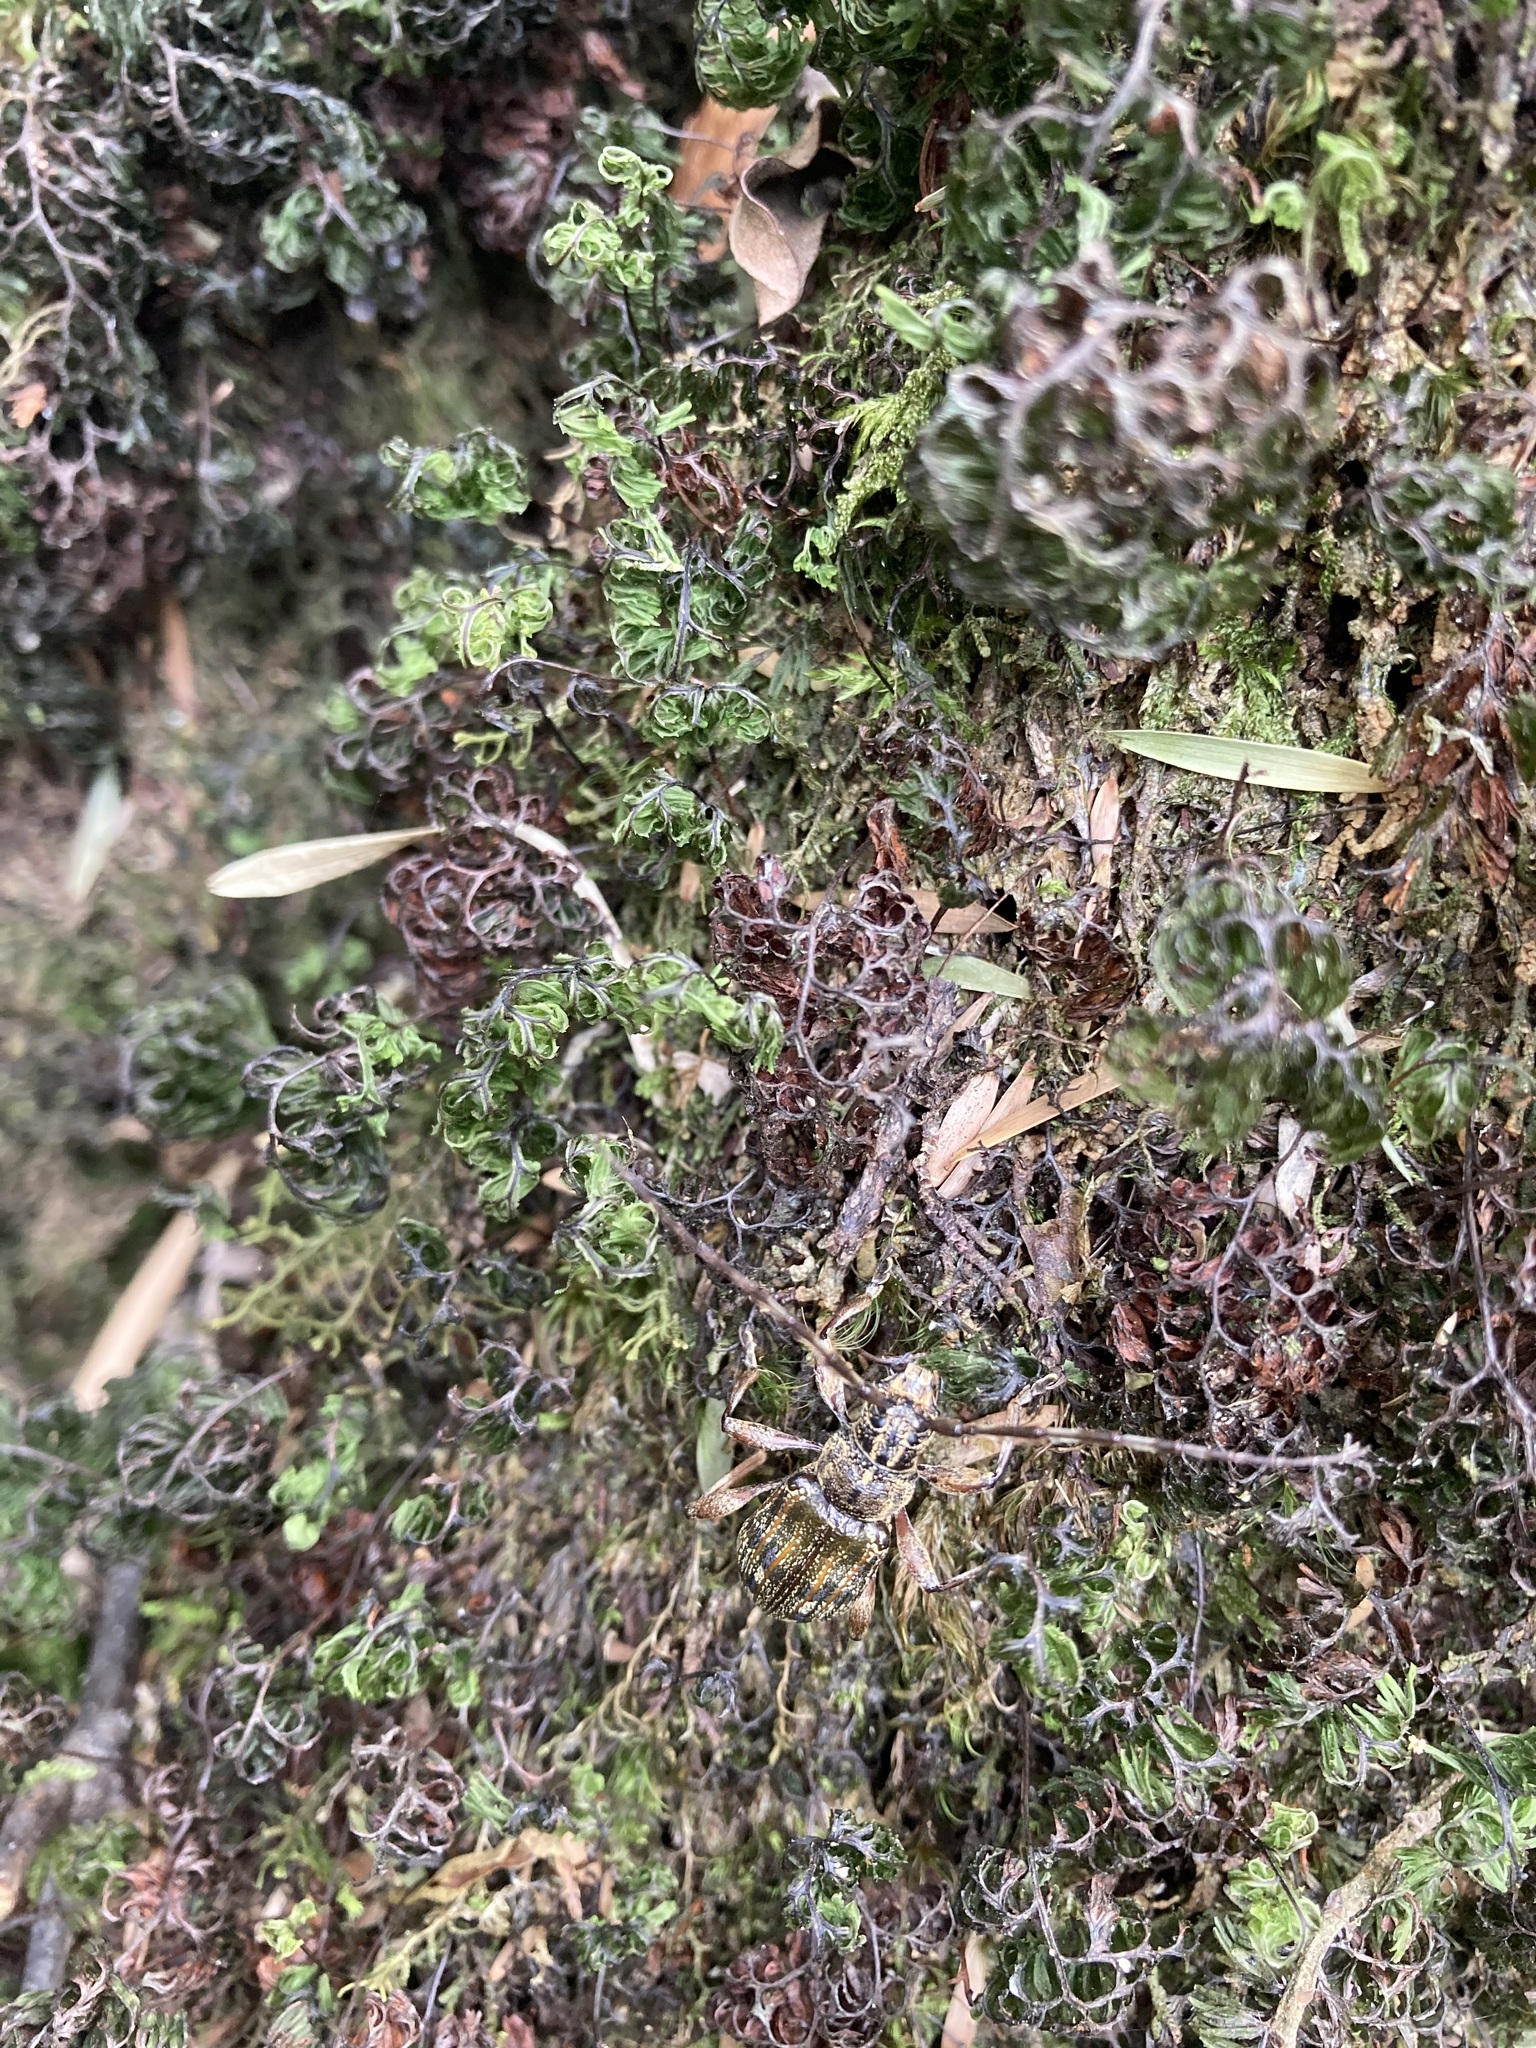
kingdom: Animalia
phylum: Arthropoda
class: Insecta
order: Coleoptera
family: Cerambycidae
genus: Hexatricha
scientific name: Hexatricha pulverulenta
